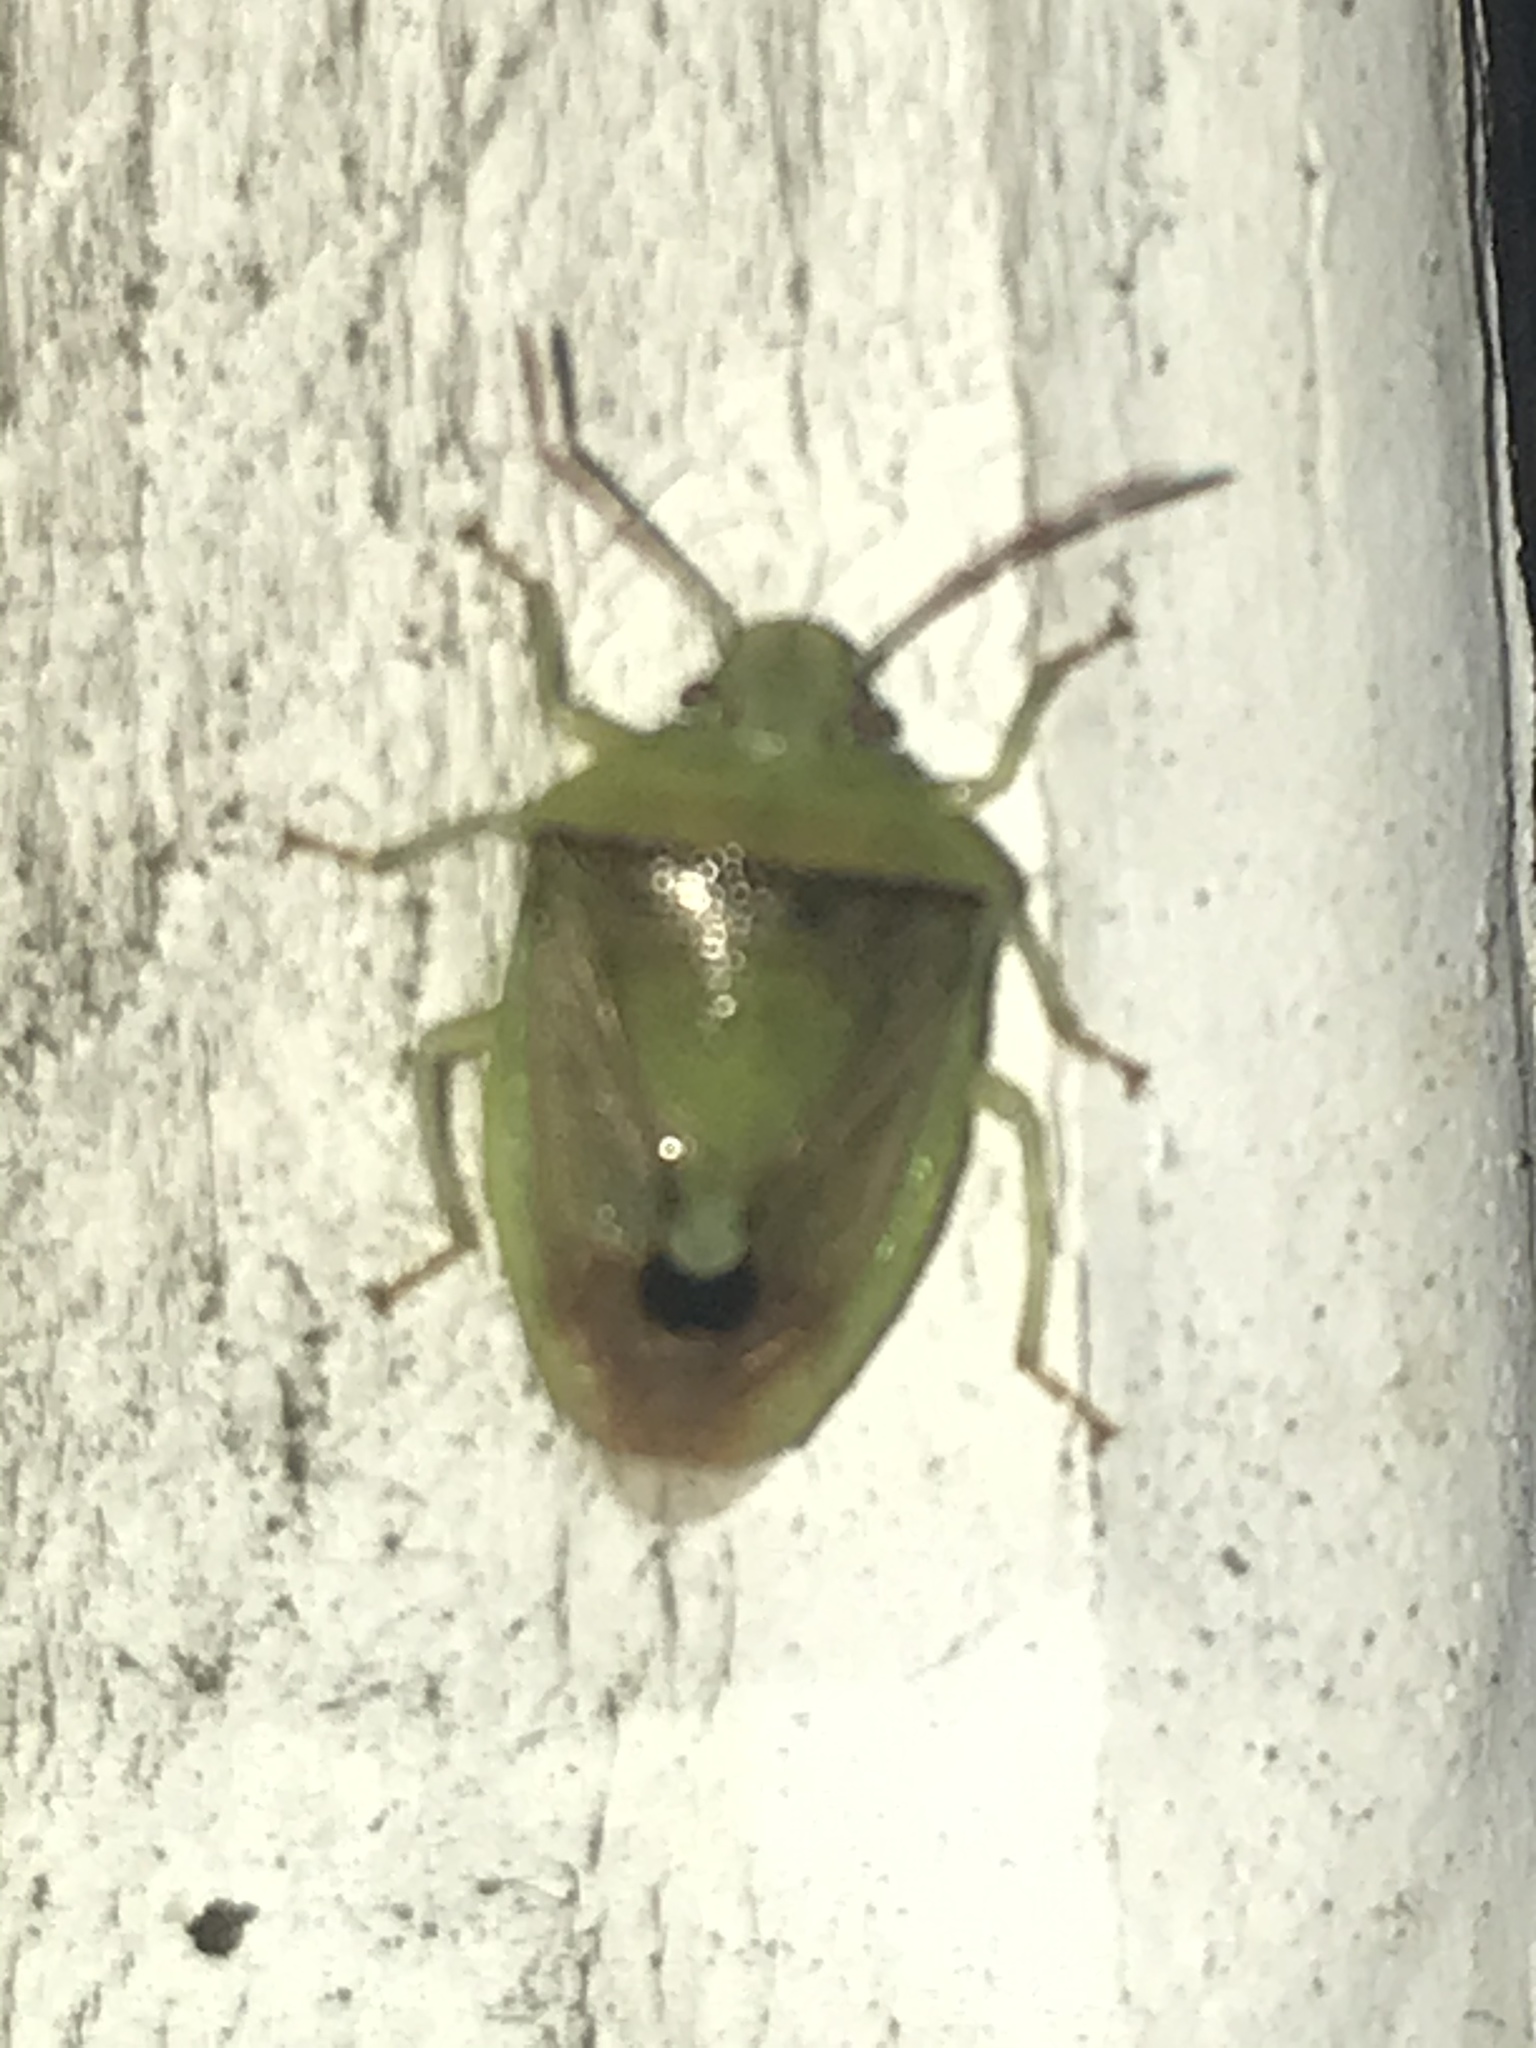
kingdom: Animalia
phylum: Arthropoda
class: Insecta
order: Hemiptera
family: Pentatomidae
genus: Banasa
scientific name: Banasa dimidiata
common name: Green burgundy stink bug
